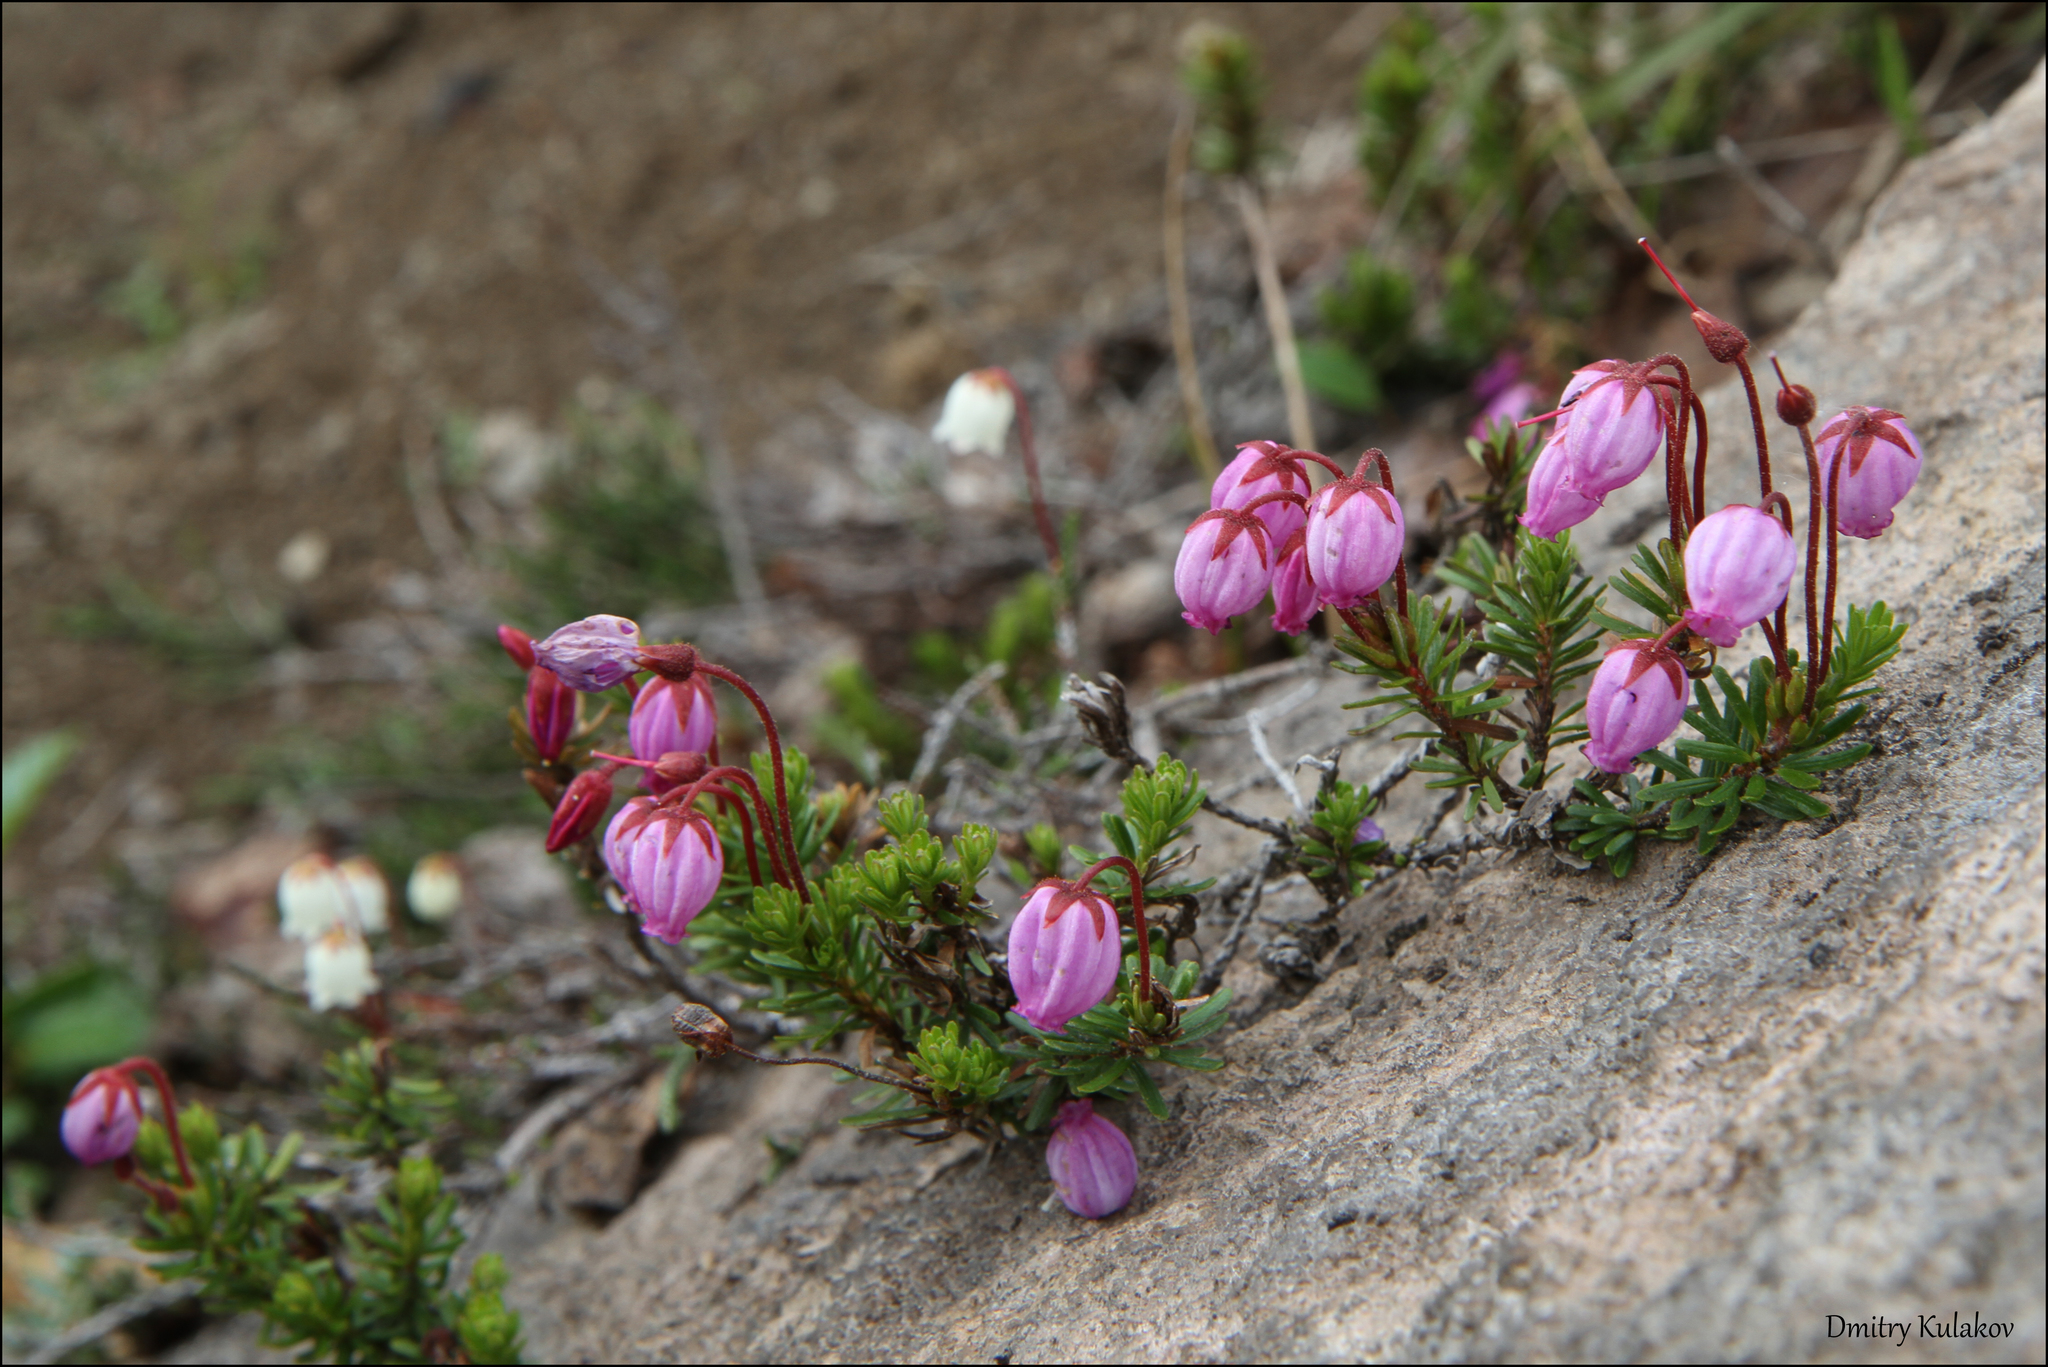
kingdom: Plantae
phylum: Tracheophyta
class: Magnoliopsida
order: Ericales
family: Ericaceae
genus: Phyllodoce
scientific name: Phyllodoce caerulea
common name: Blue heath
